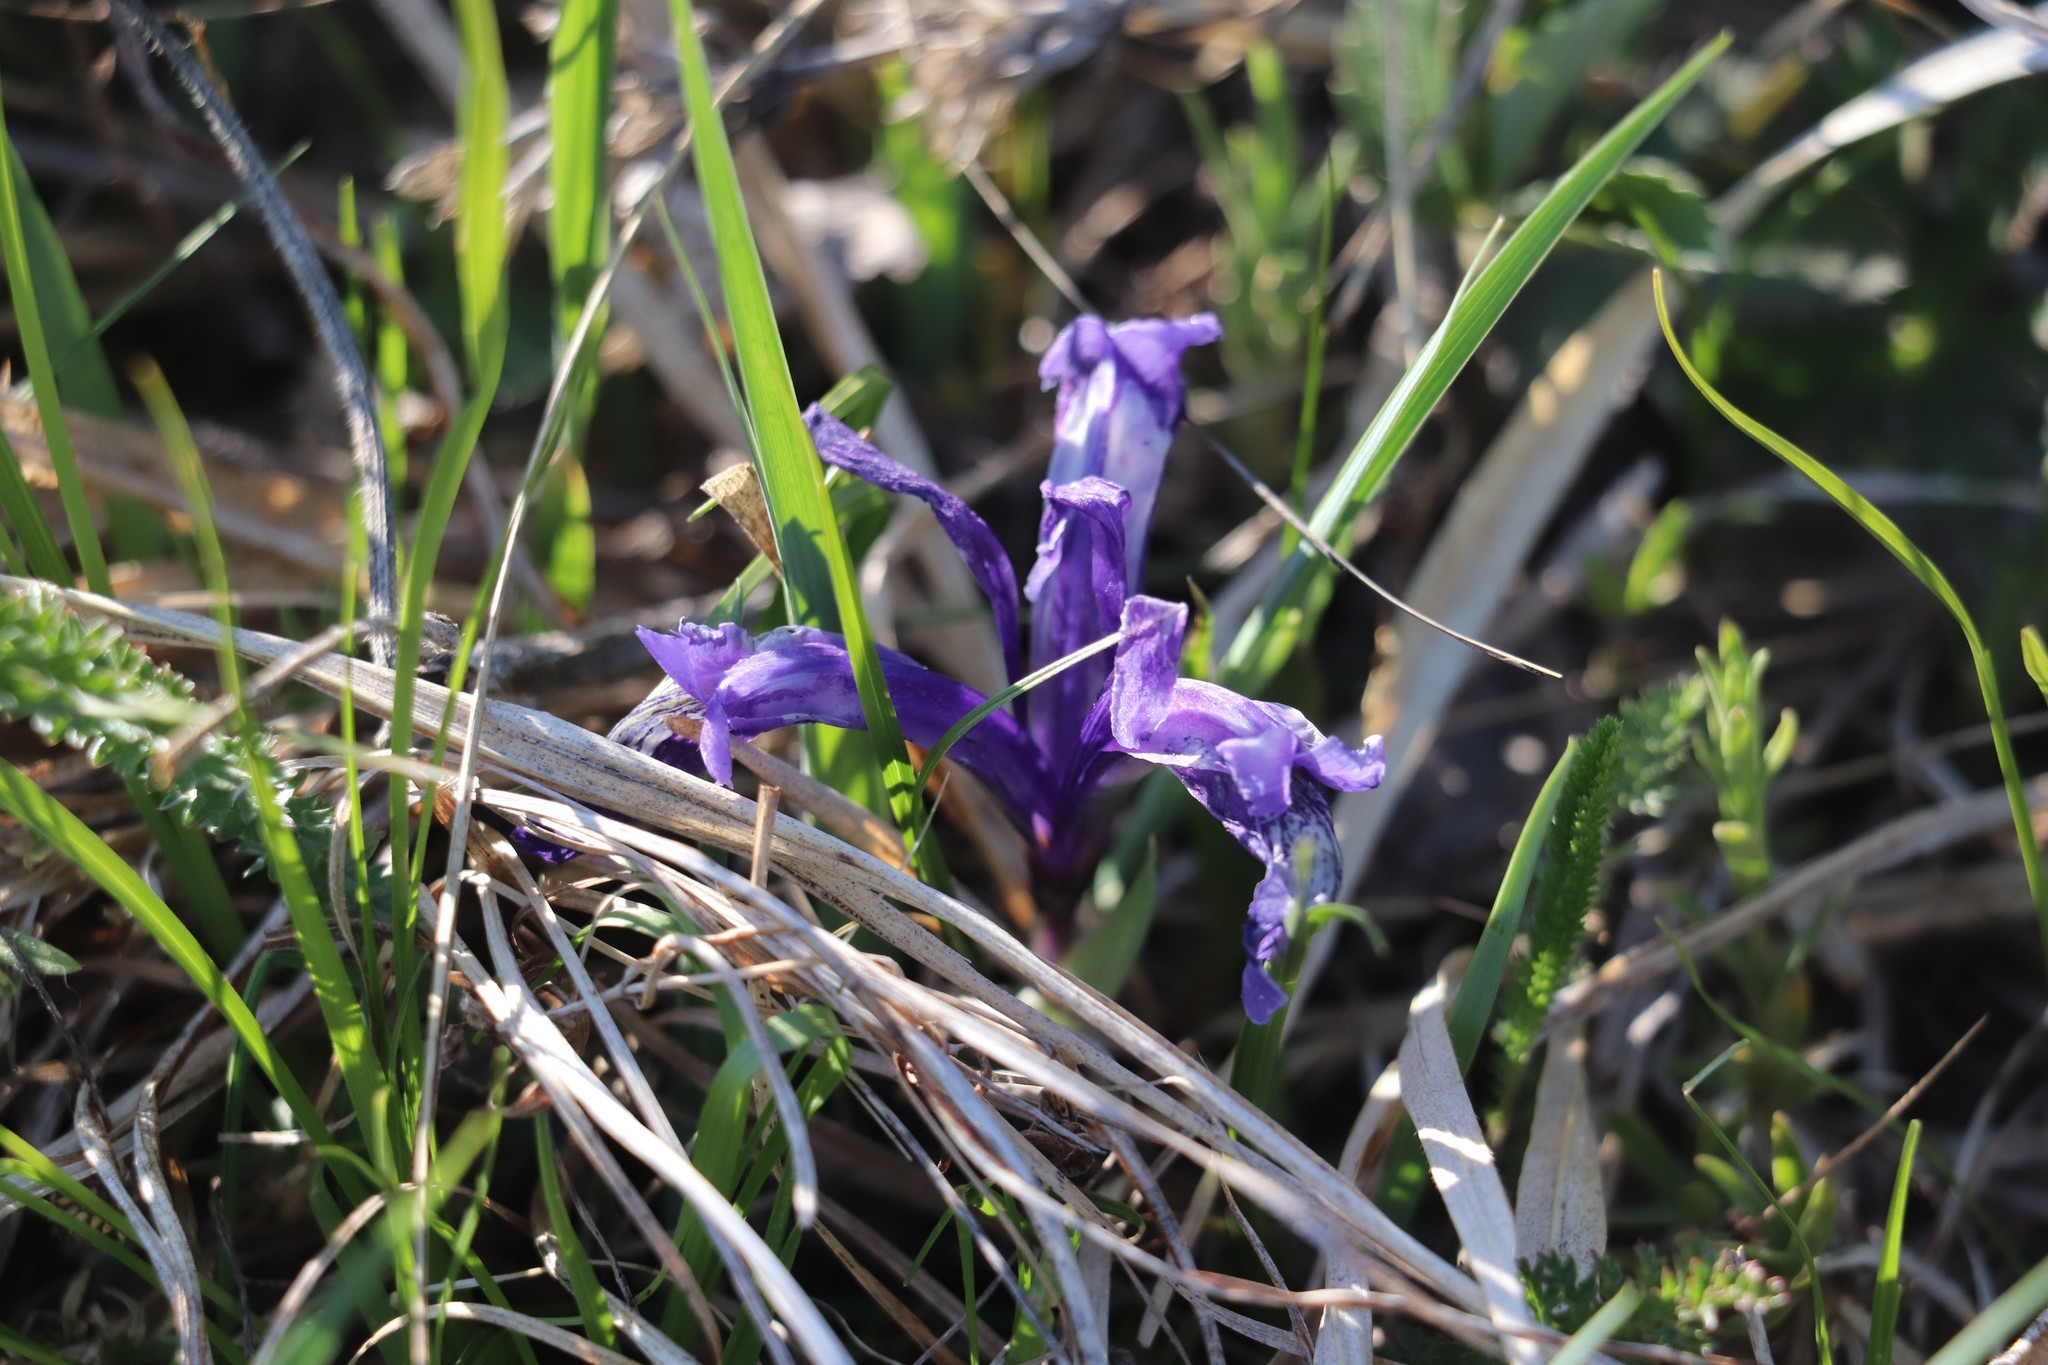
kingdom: Plantae
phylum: Tracheophyta
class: Liliopsida
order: Asparagales
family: Iridaceae
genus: Iris
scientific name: Iris ruthenica
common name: Purple-bract iris
